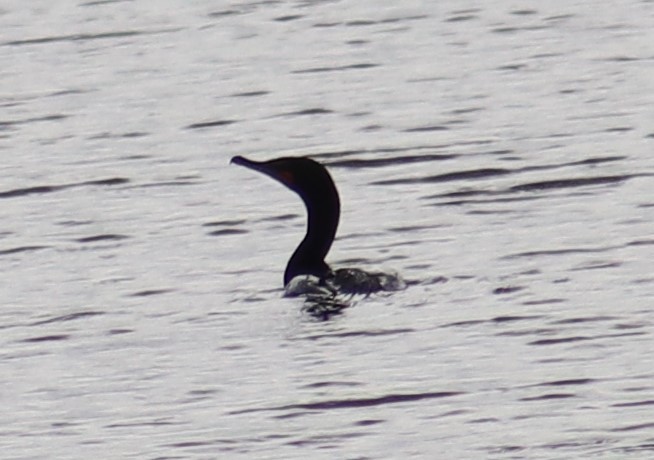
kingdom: Animalia
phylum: Chordata
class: Aves
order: Suliformes
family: Phalacrocoracidae
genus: Phalacrocorax
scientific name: Phalacrocorax auritus
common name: Double-crested cormorant
